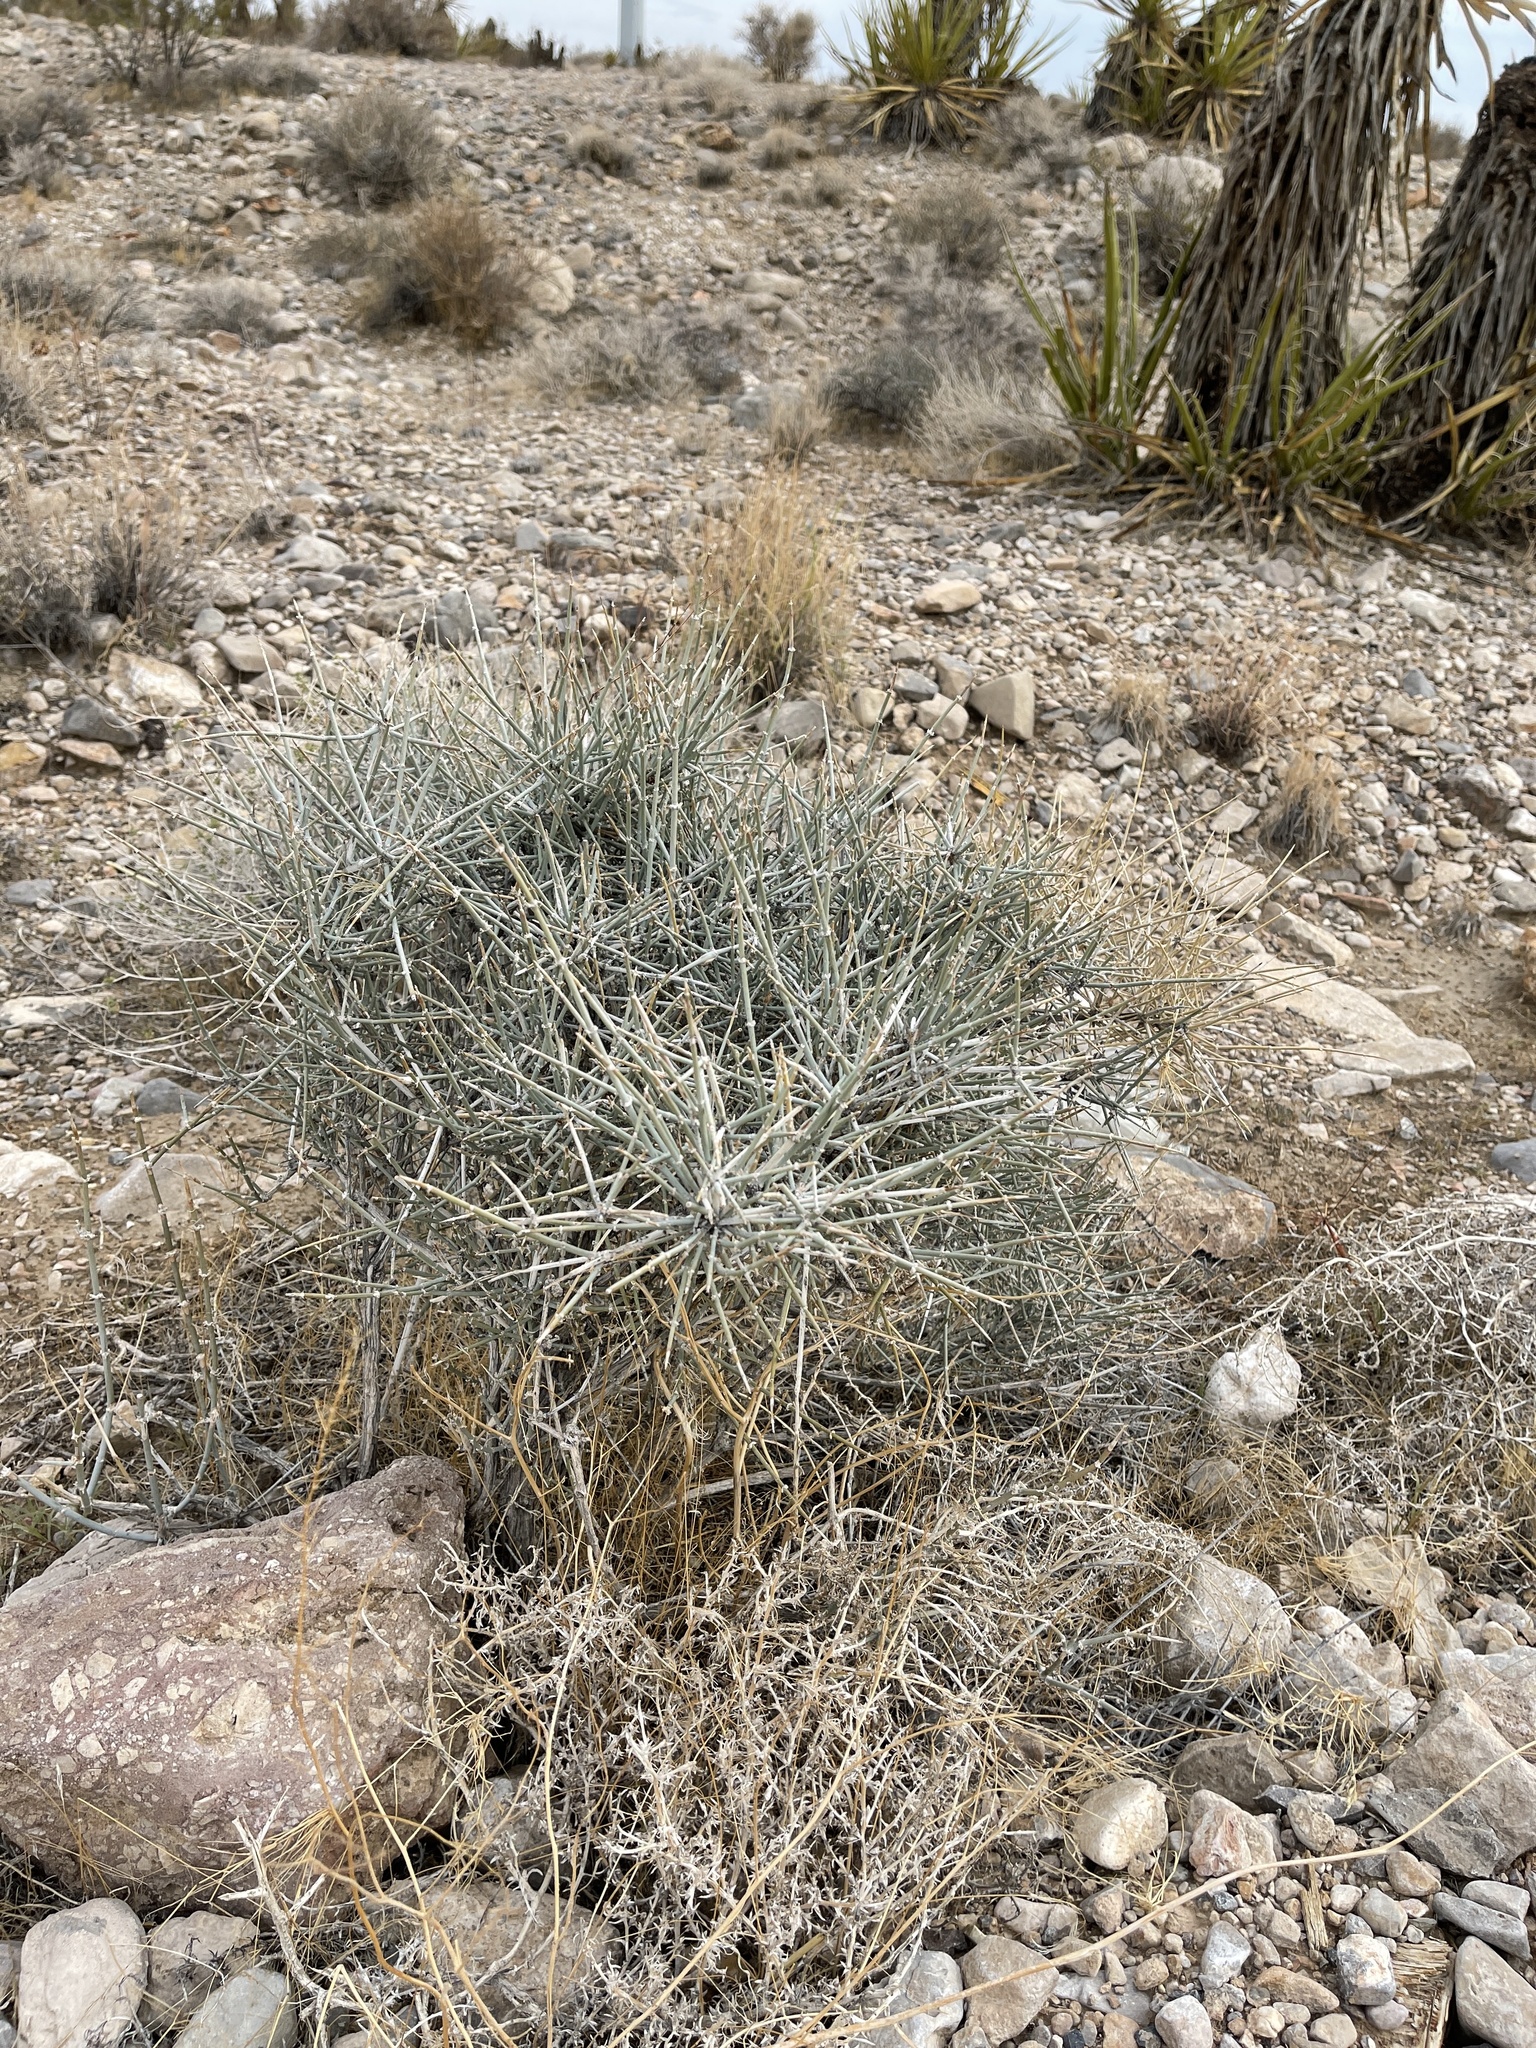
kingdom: Plantae
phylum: Tracheophyta
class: Gnetopsida
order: Ephedrales
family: Ephedraceae
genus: Ephedra
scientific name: Ephedra nevadensis
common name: Gray ephedra
